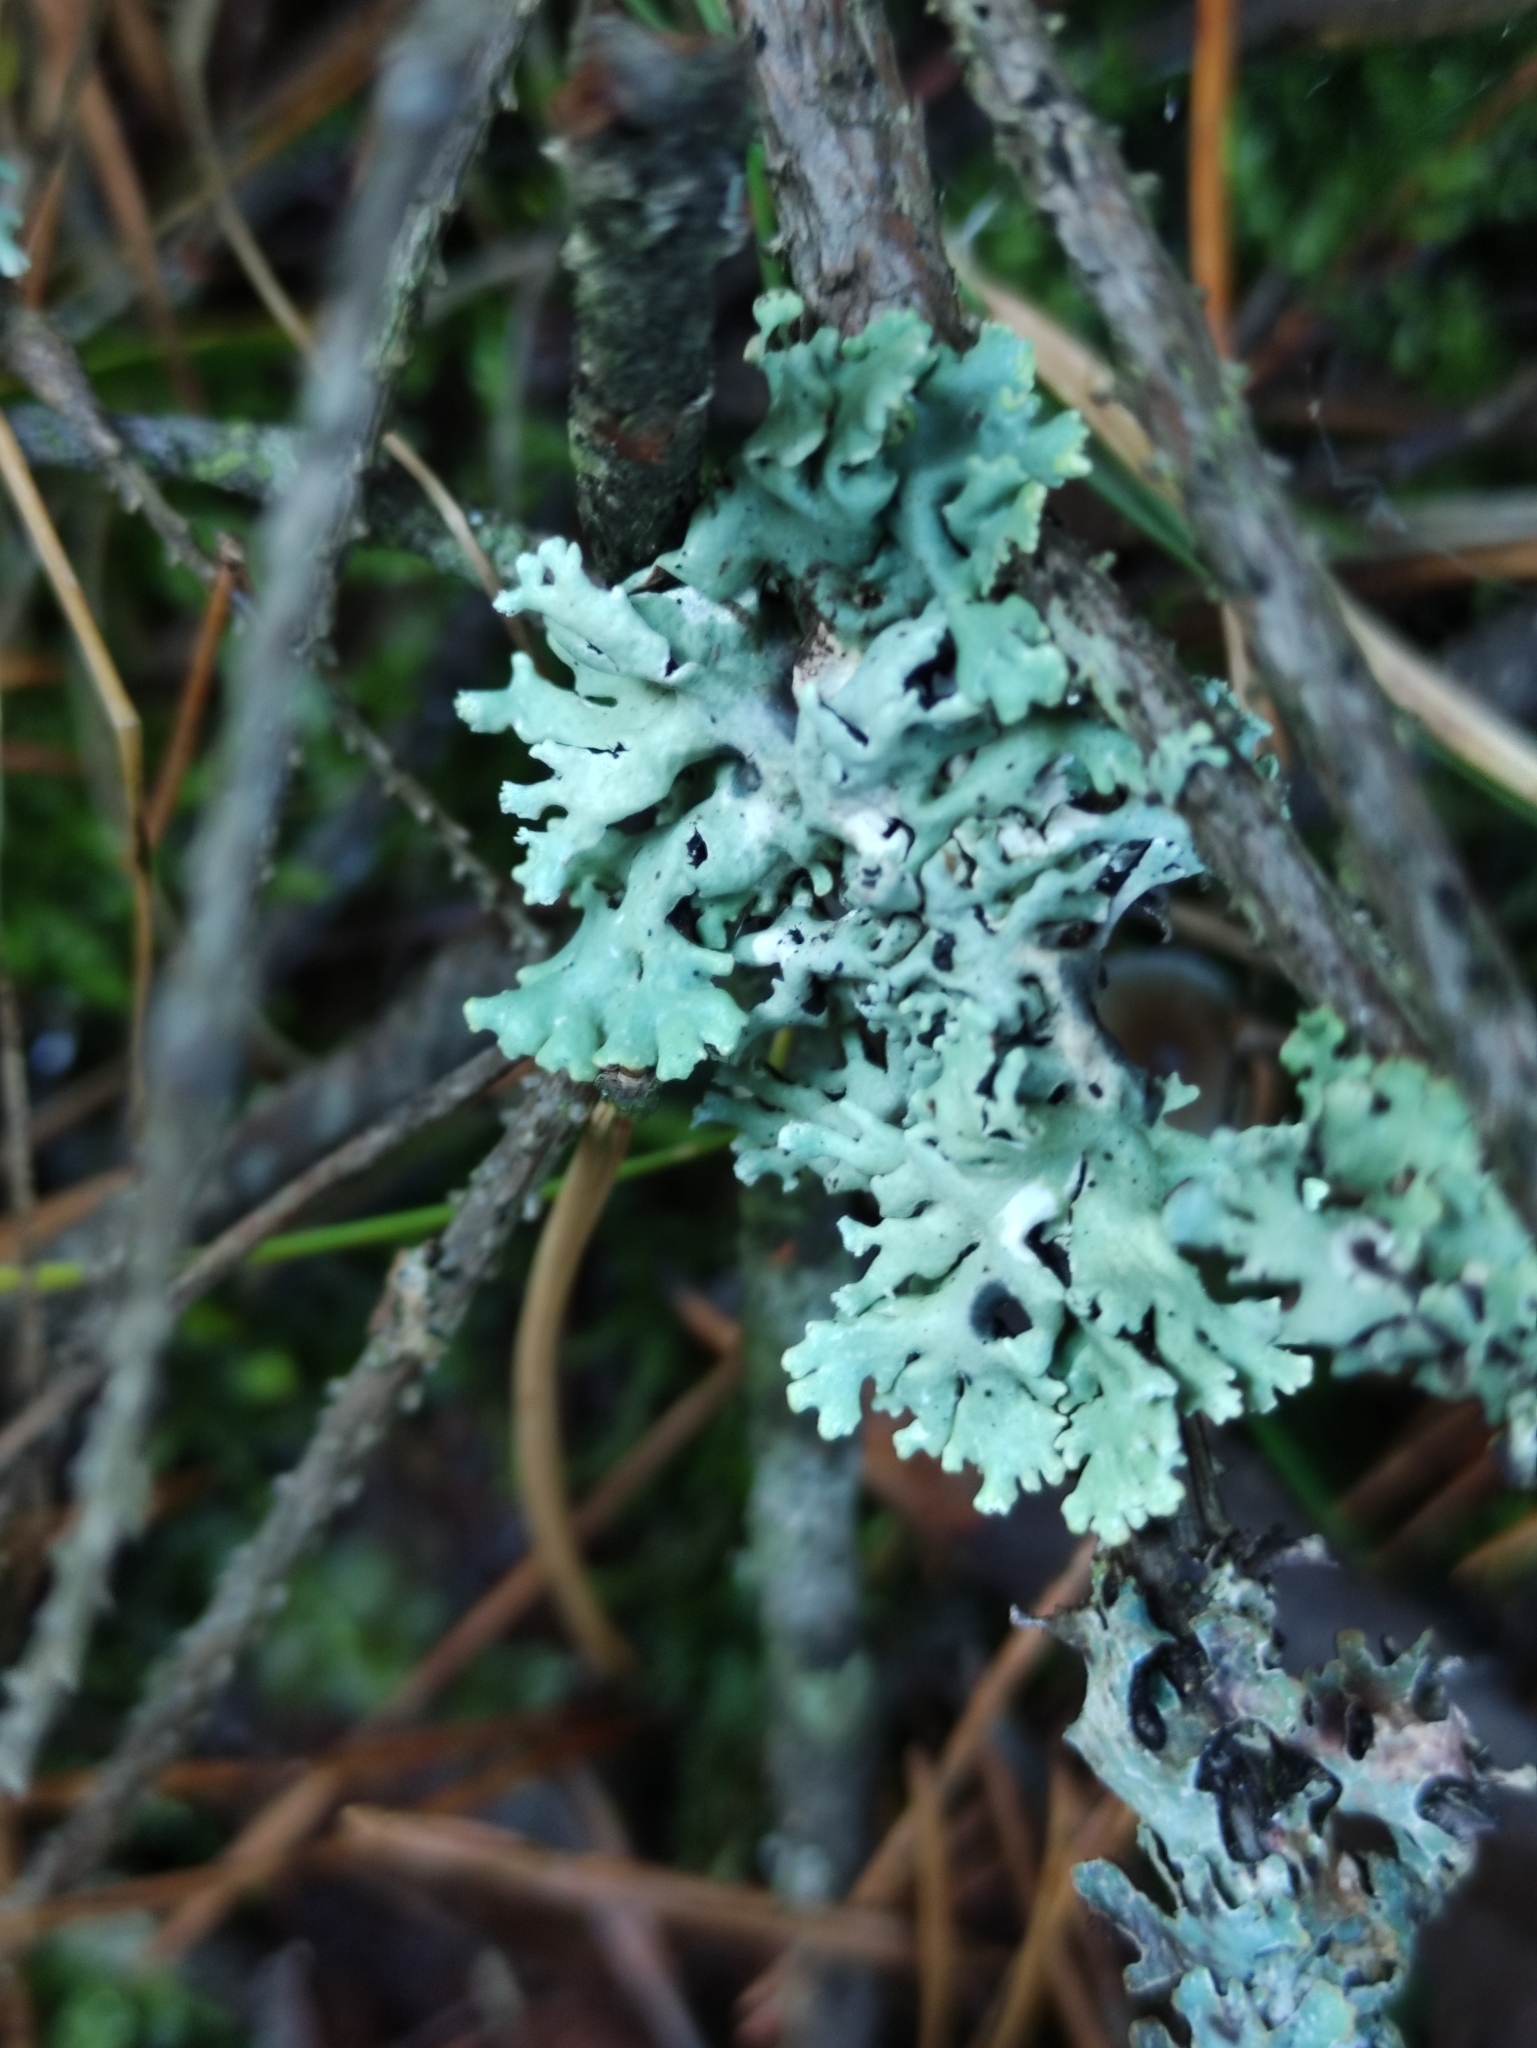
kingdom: Fungi
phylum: Ascomycota
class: Lecanoromycetes
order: Lecanorales
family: Parmeliaceae
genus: Hypogymnia
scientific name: Hypogymnia physodes
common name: Dark crottle
